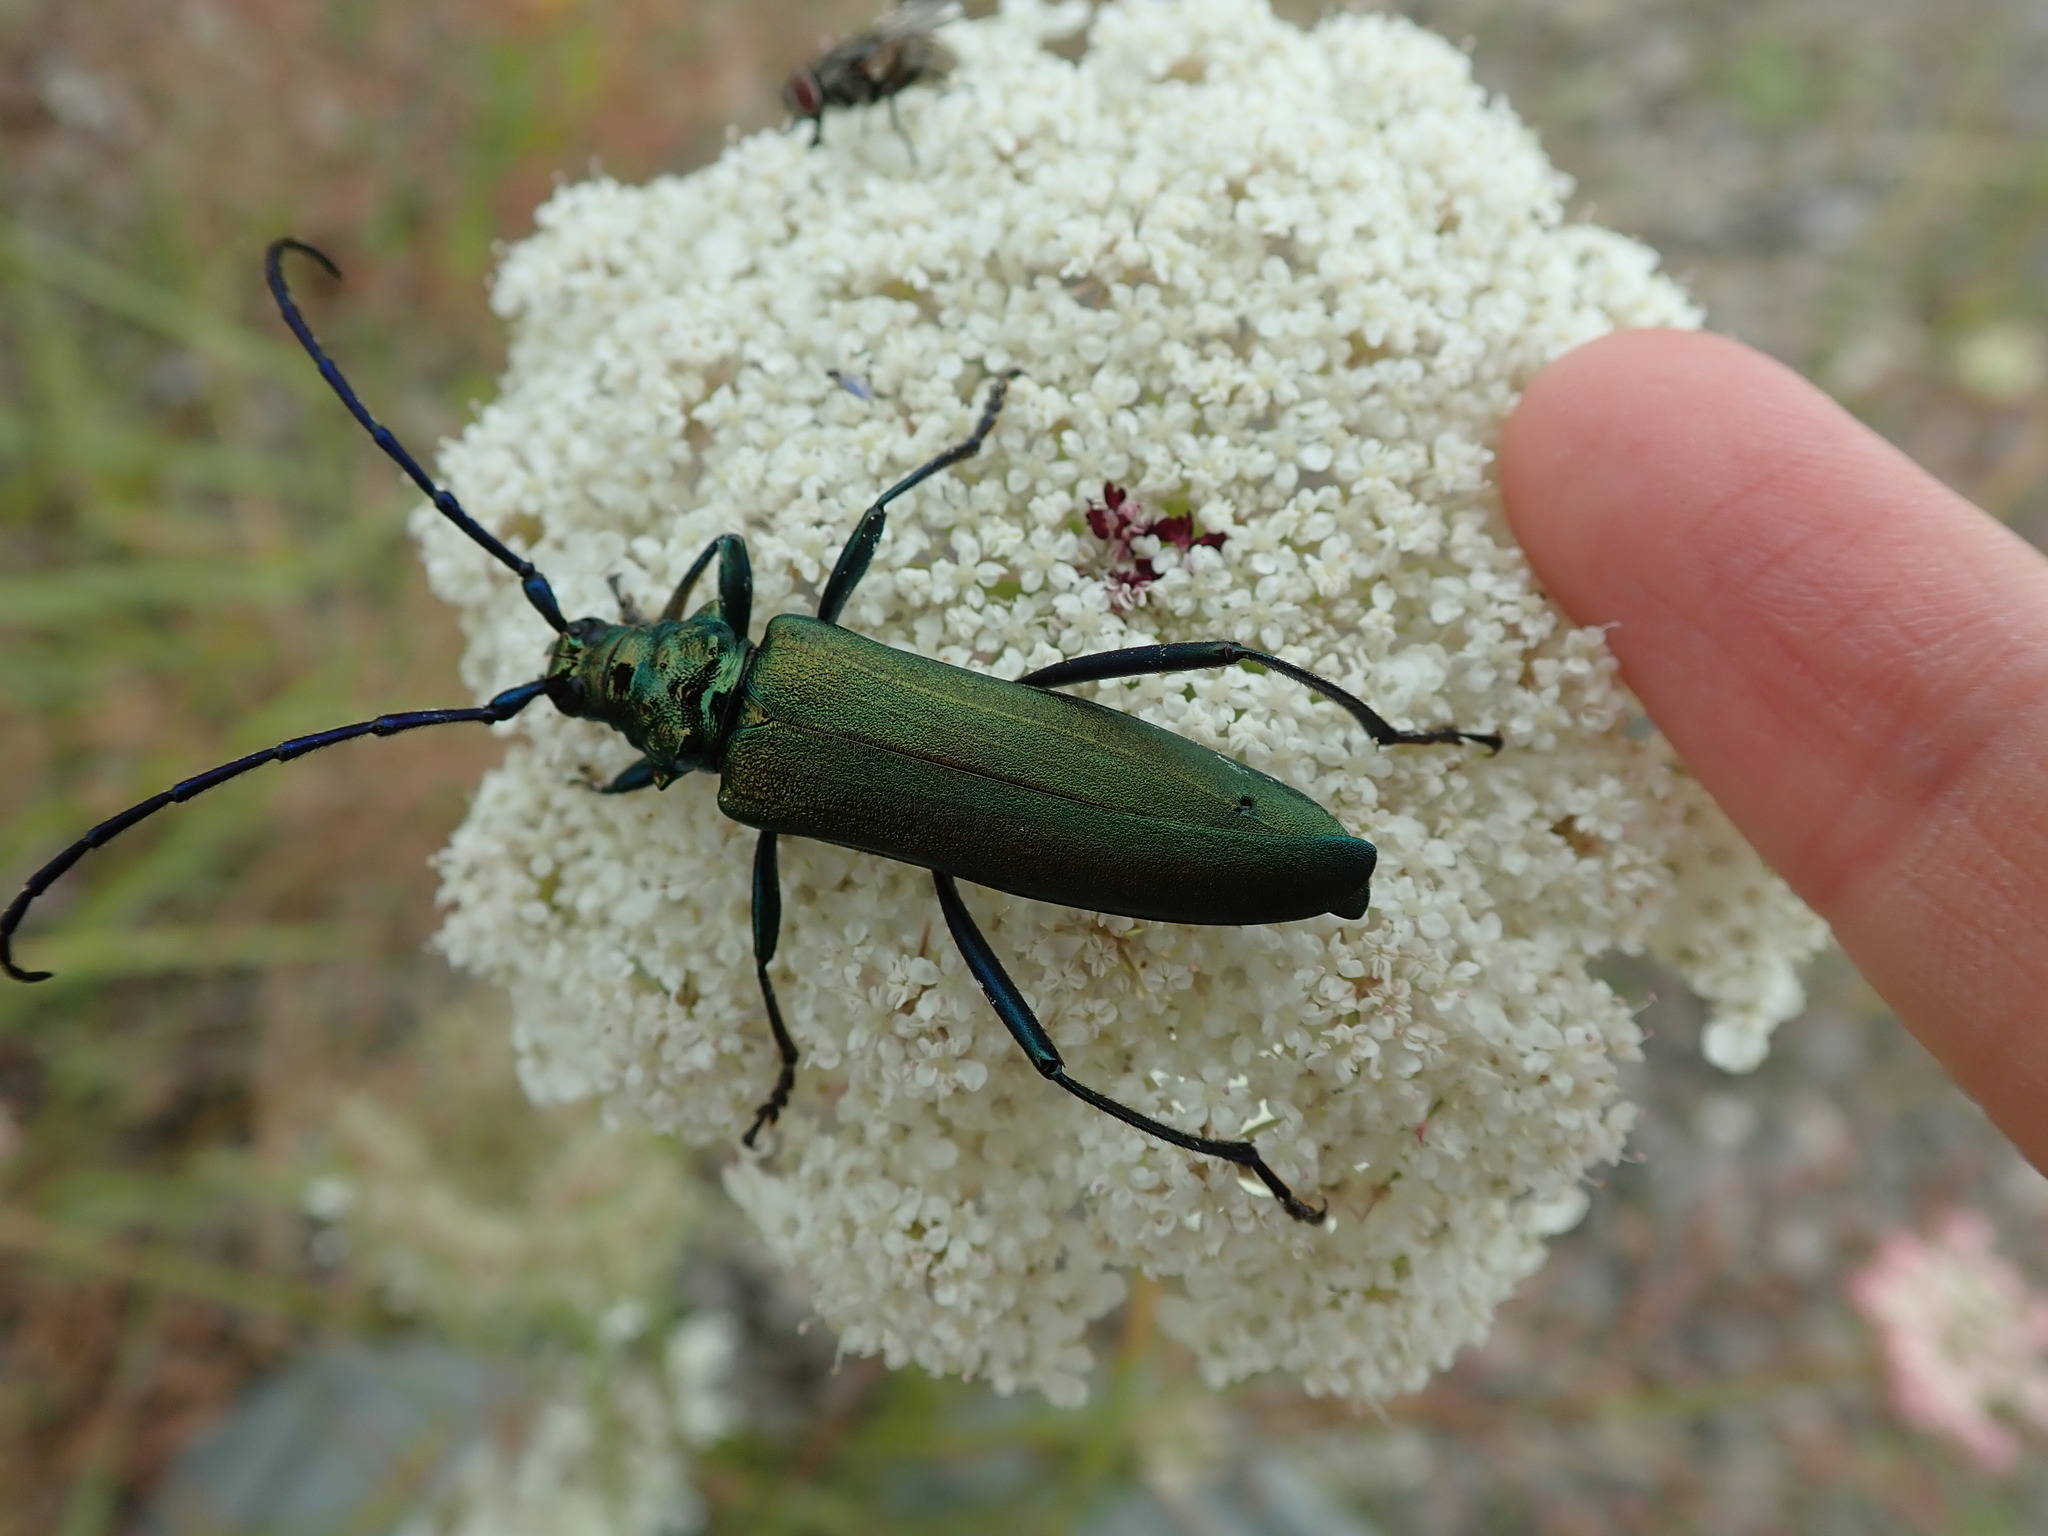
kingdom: Animalia
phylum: Arthropoda
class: Insecta
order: Coleoptera
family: Cerambycidae
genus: Aromia
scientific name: Aromia moschata
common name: Musk beetle
